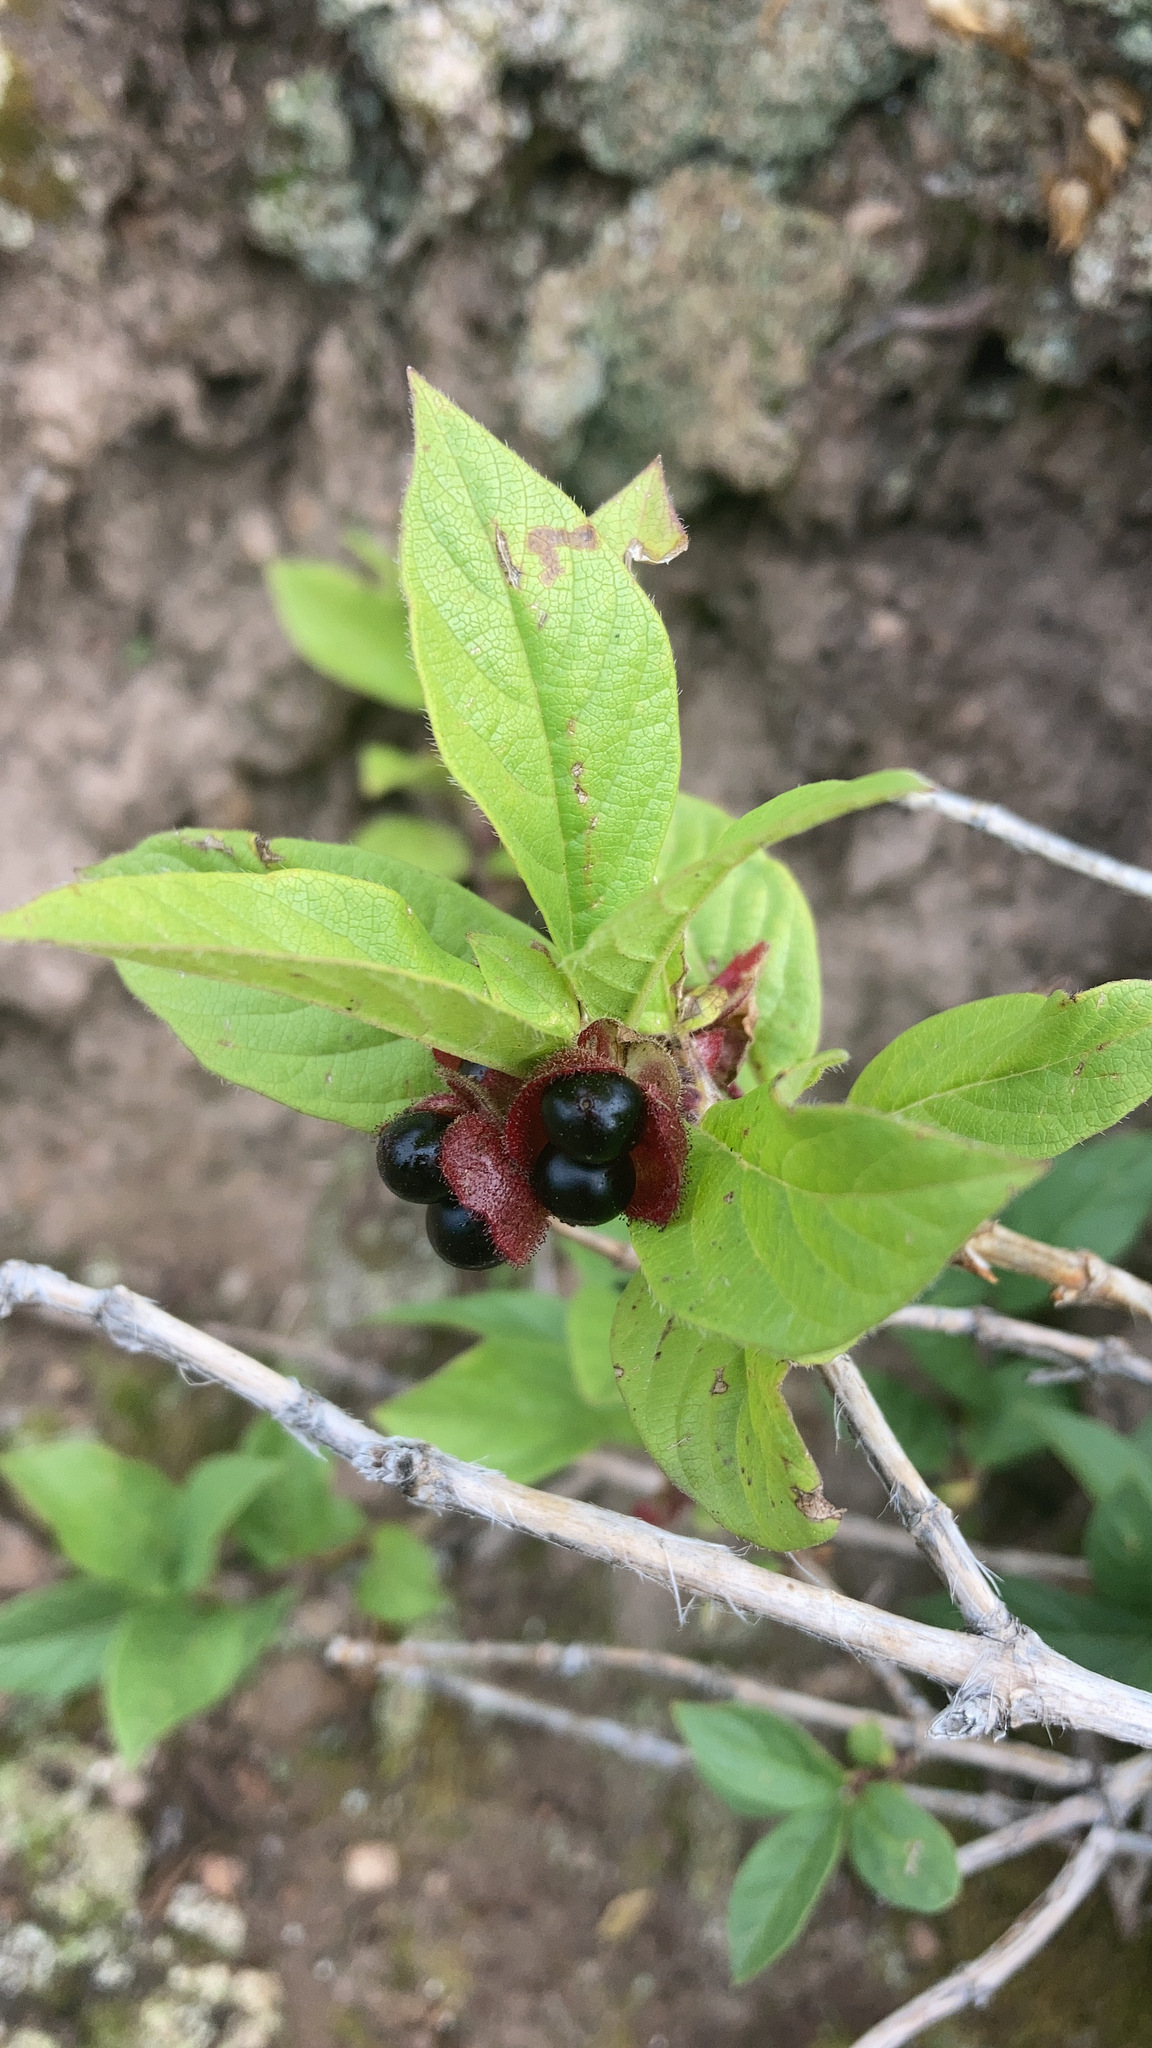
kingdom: Plantae
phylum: Tracheophyta
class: Magnoliopsida
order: Dipsacales
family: Caprifoliaceae
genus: Lonicera
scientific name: Lonicera involucrata
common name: Californian honeysuckle
